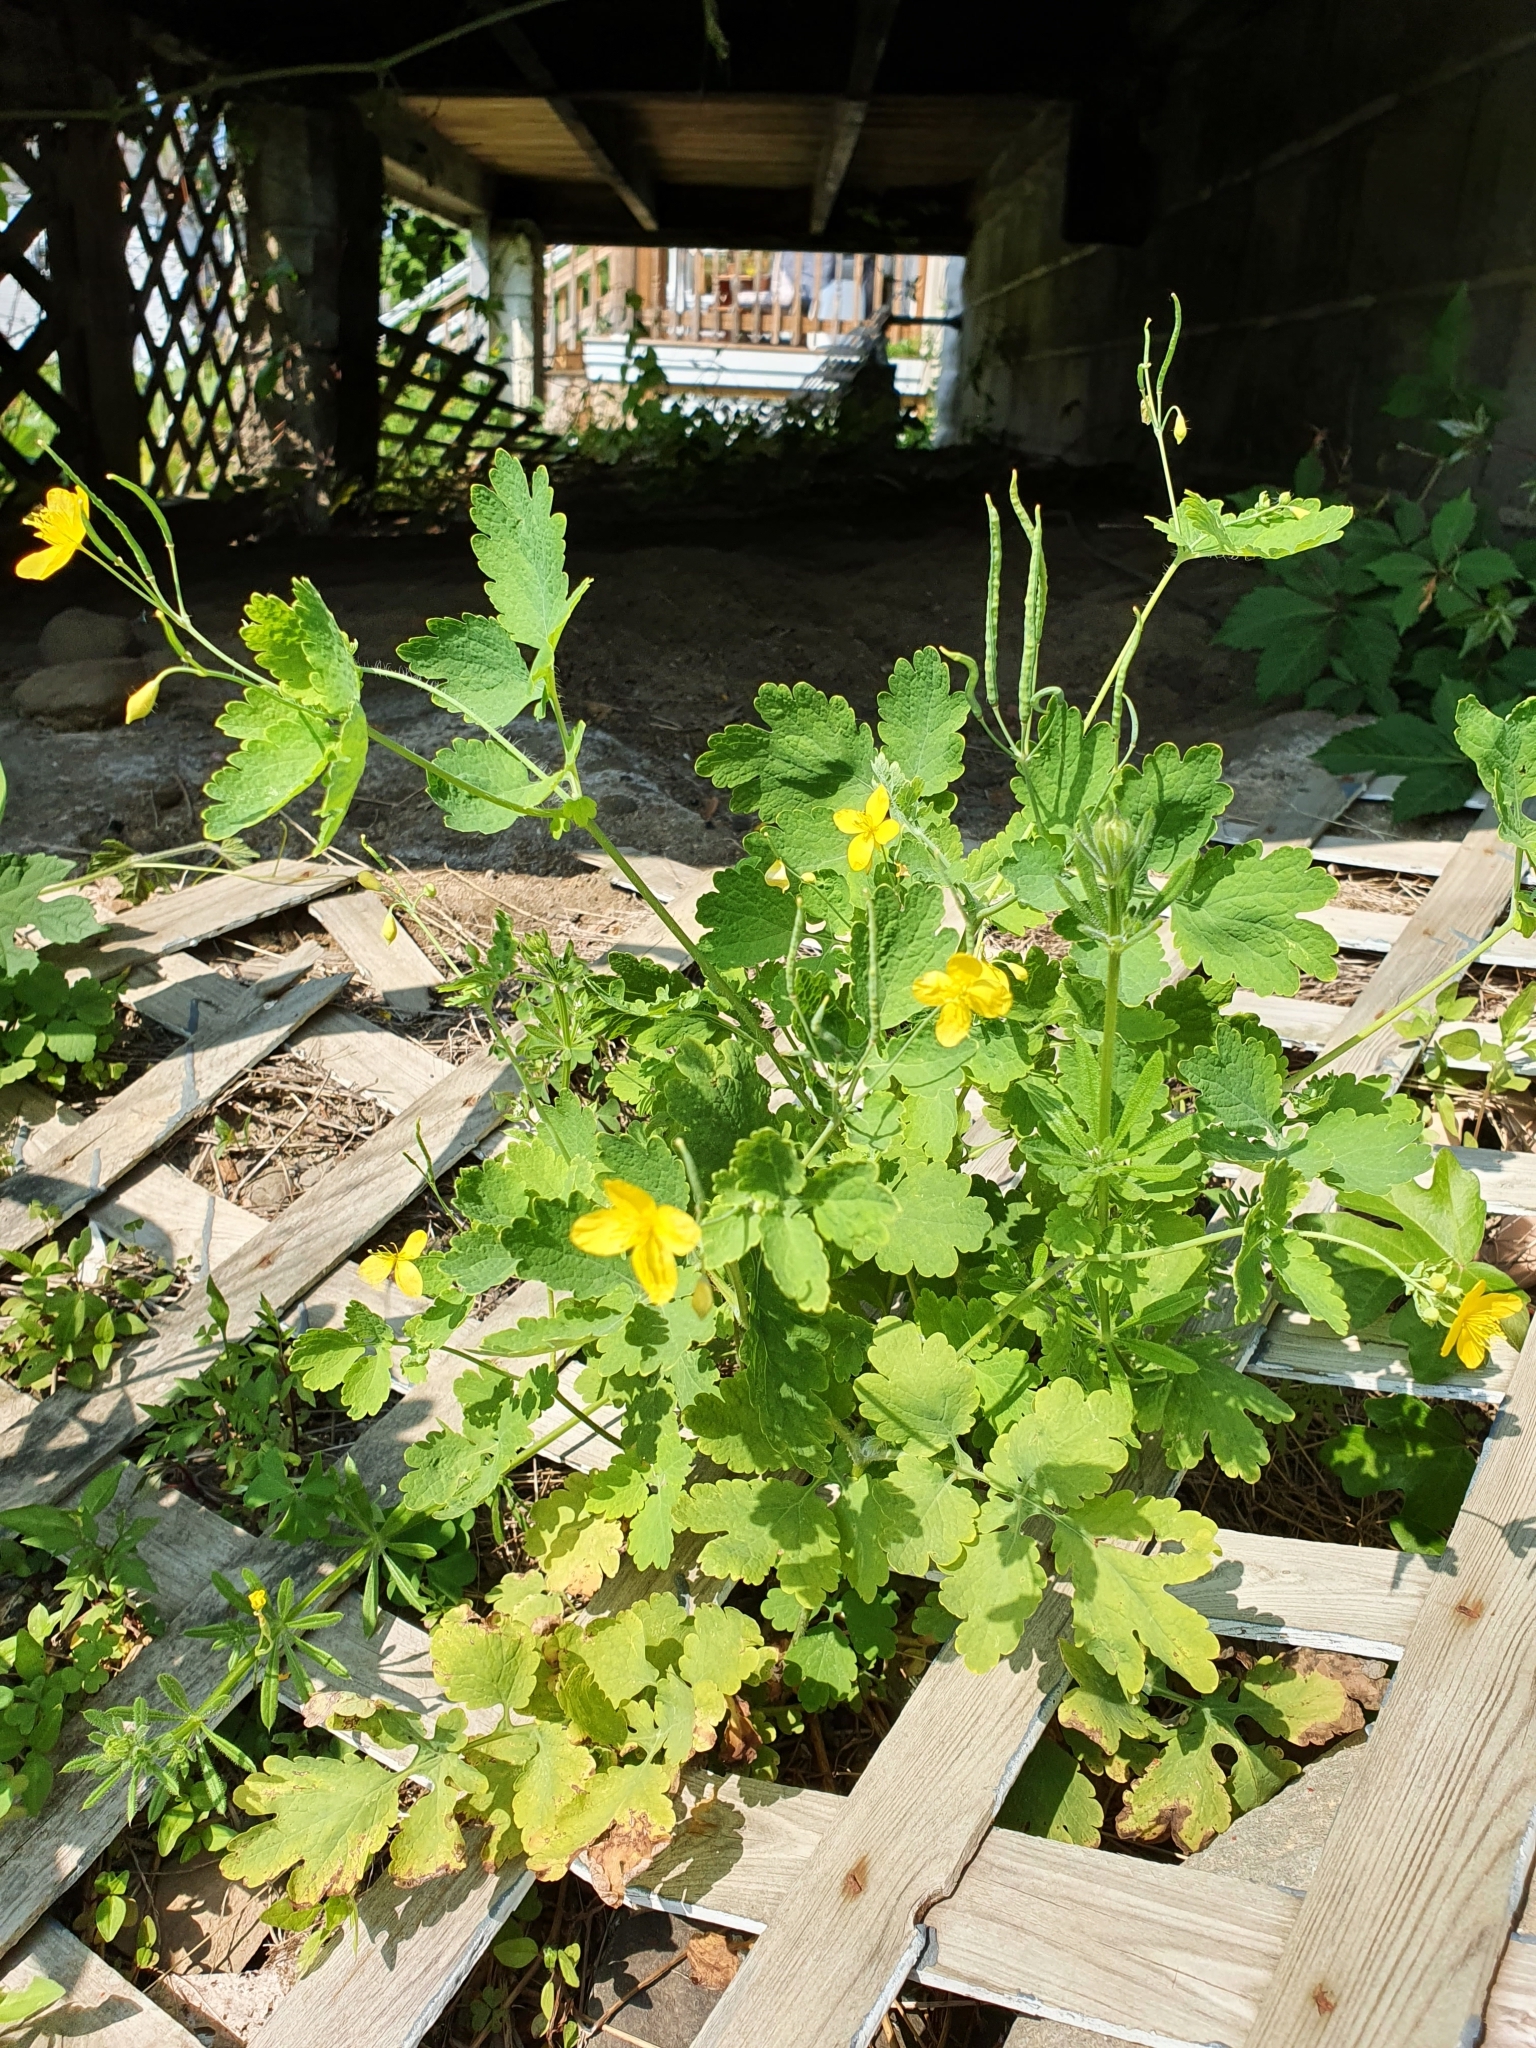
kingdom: Plantae
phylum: Tracheophyta
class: Magnoliopsida
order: Ranunculales
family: Papaveraceae
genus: Chelidonium
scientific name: Chelidonium majus
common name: Greater celandine
